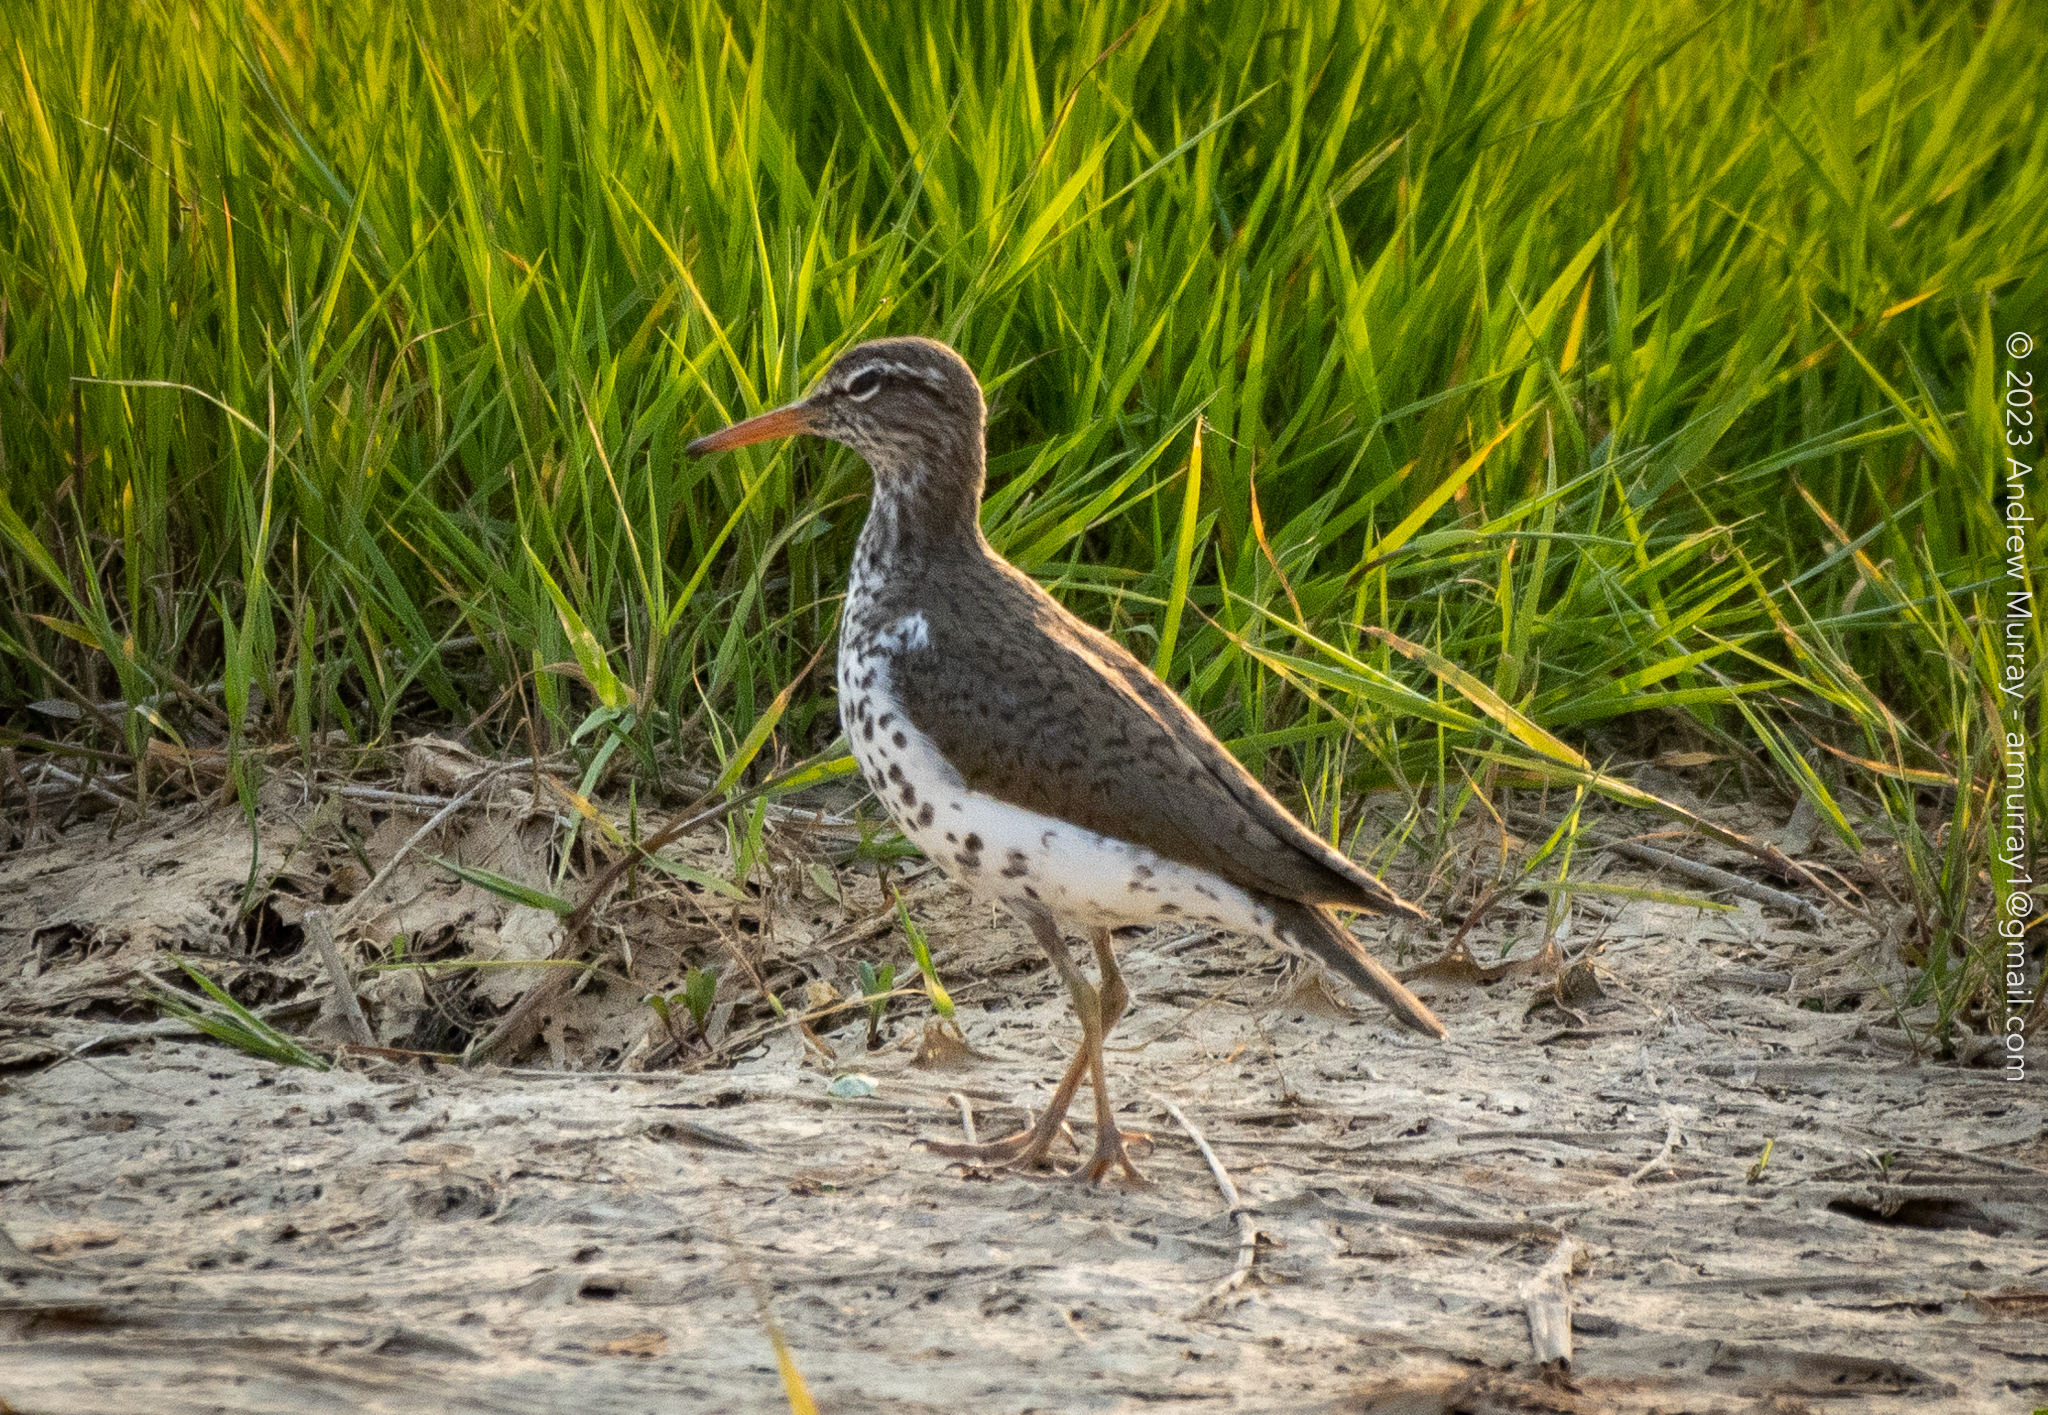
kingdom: Animalia
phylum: Chordata
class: Aves
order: Charadriiformes
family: Scolopacidae
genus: Actitis
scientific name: Actitis macularius
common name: Spotted sandpiper
